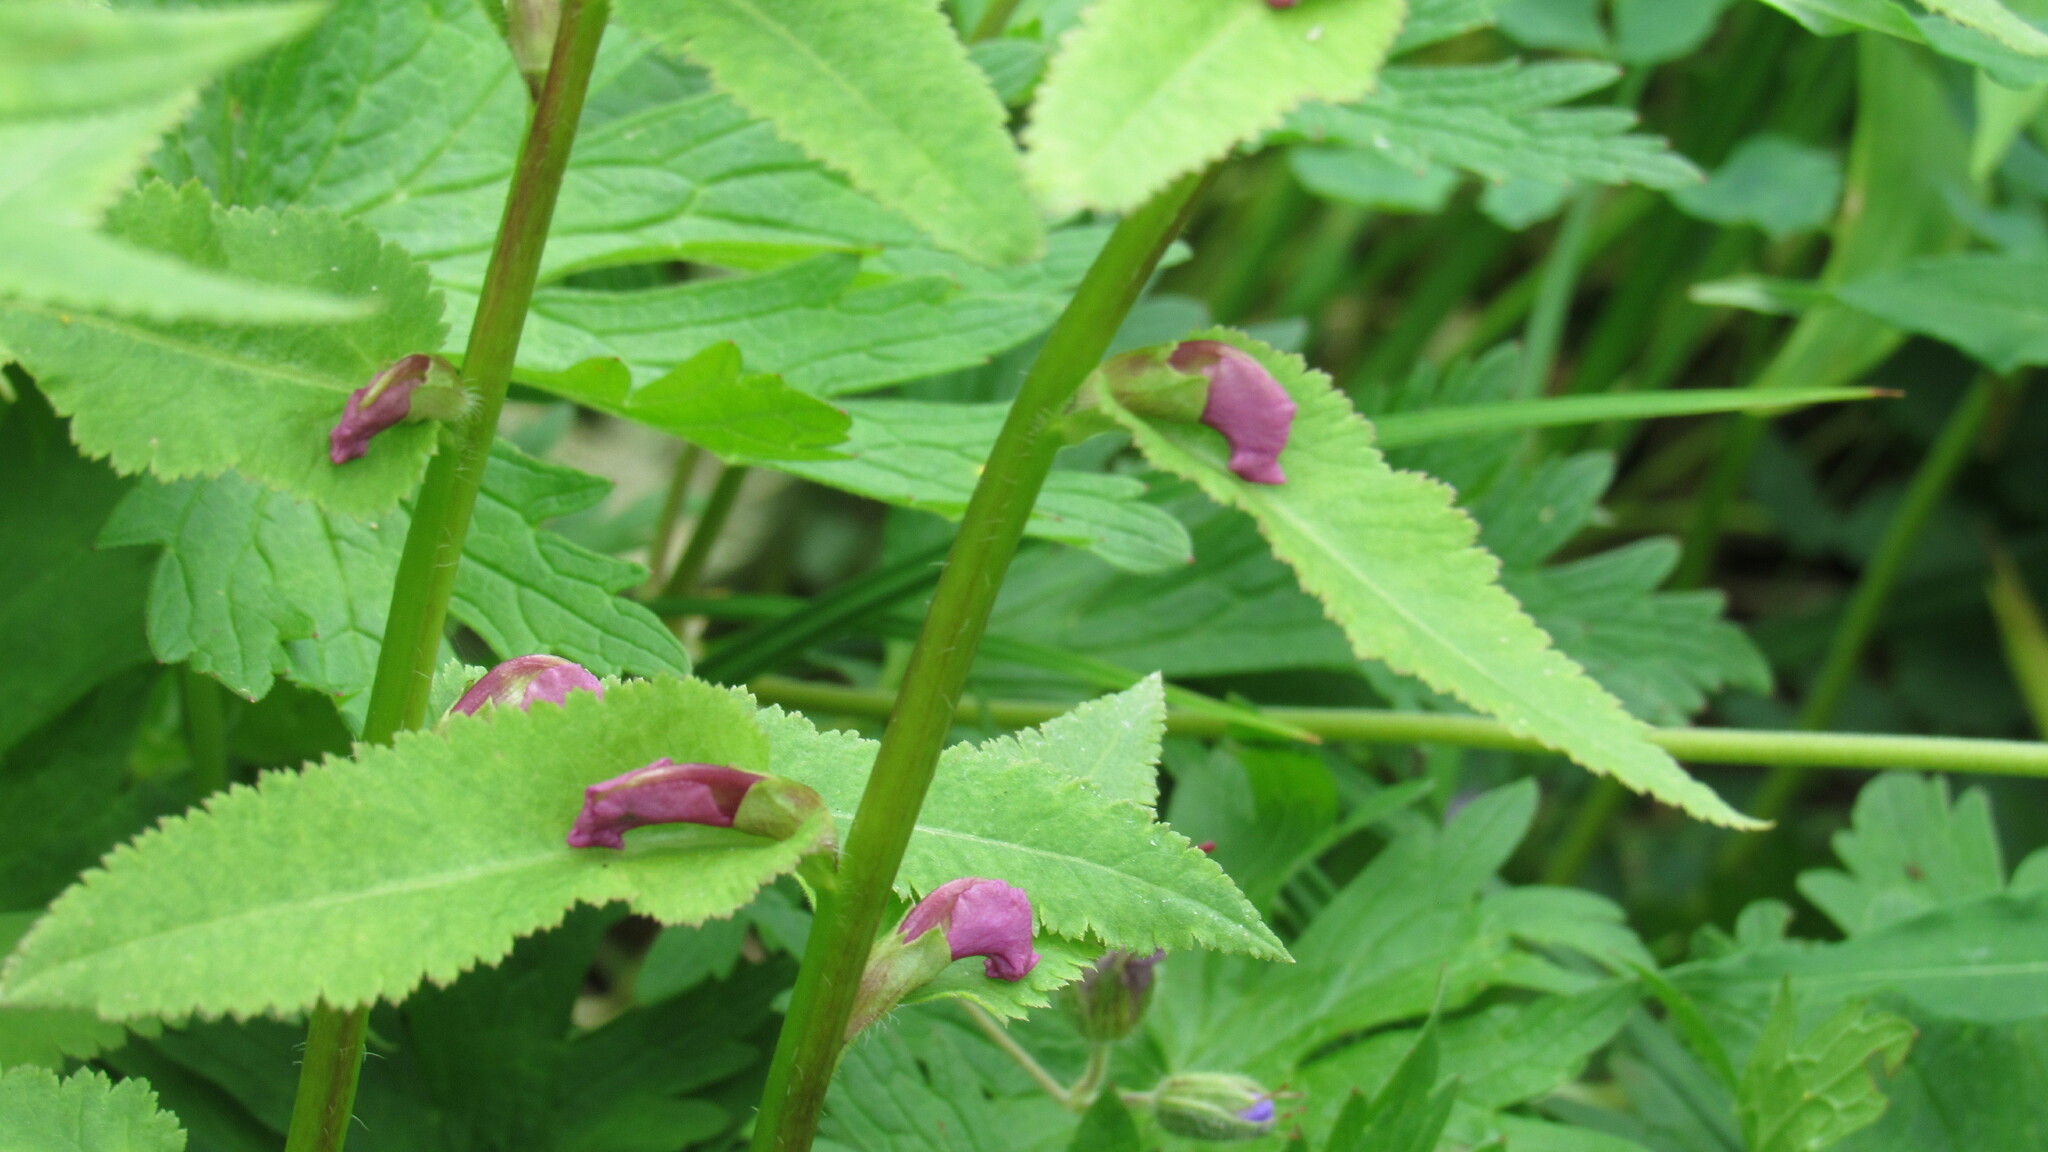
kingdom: Plantae
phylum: Tracheophyta
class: Magnoliopsida
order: Lamiales
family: Orobanchaceae
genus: Pedicularis
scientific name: Pedicularis resupinata
